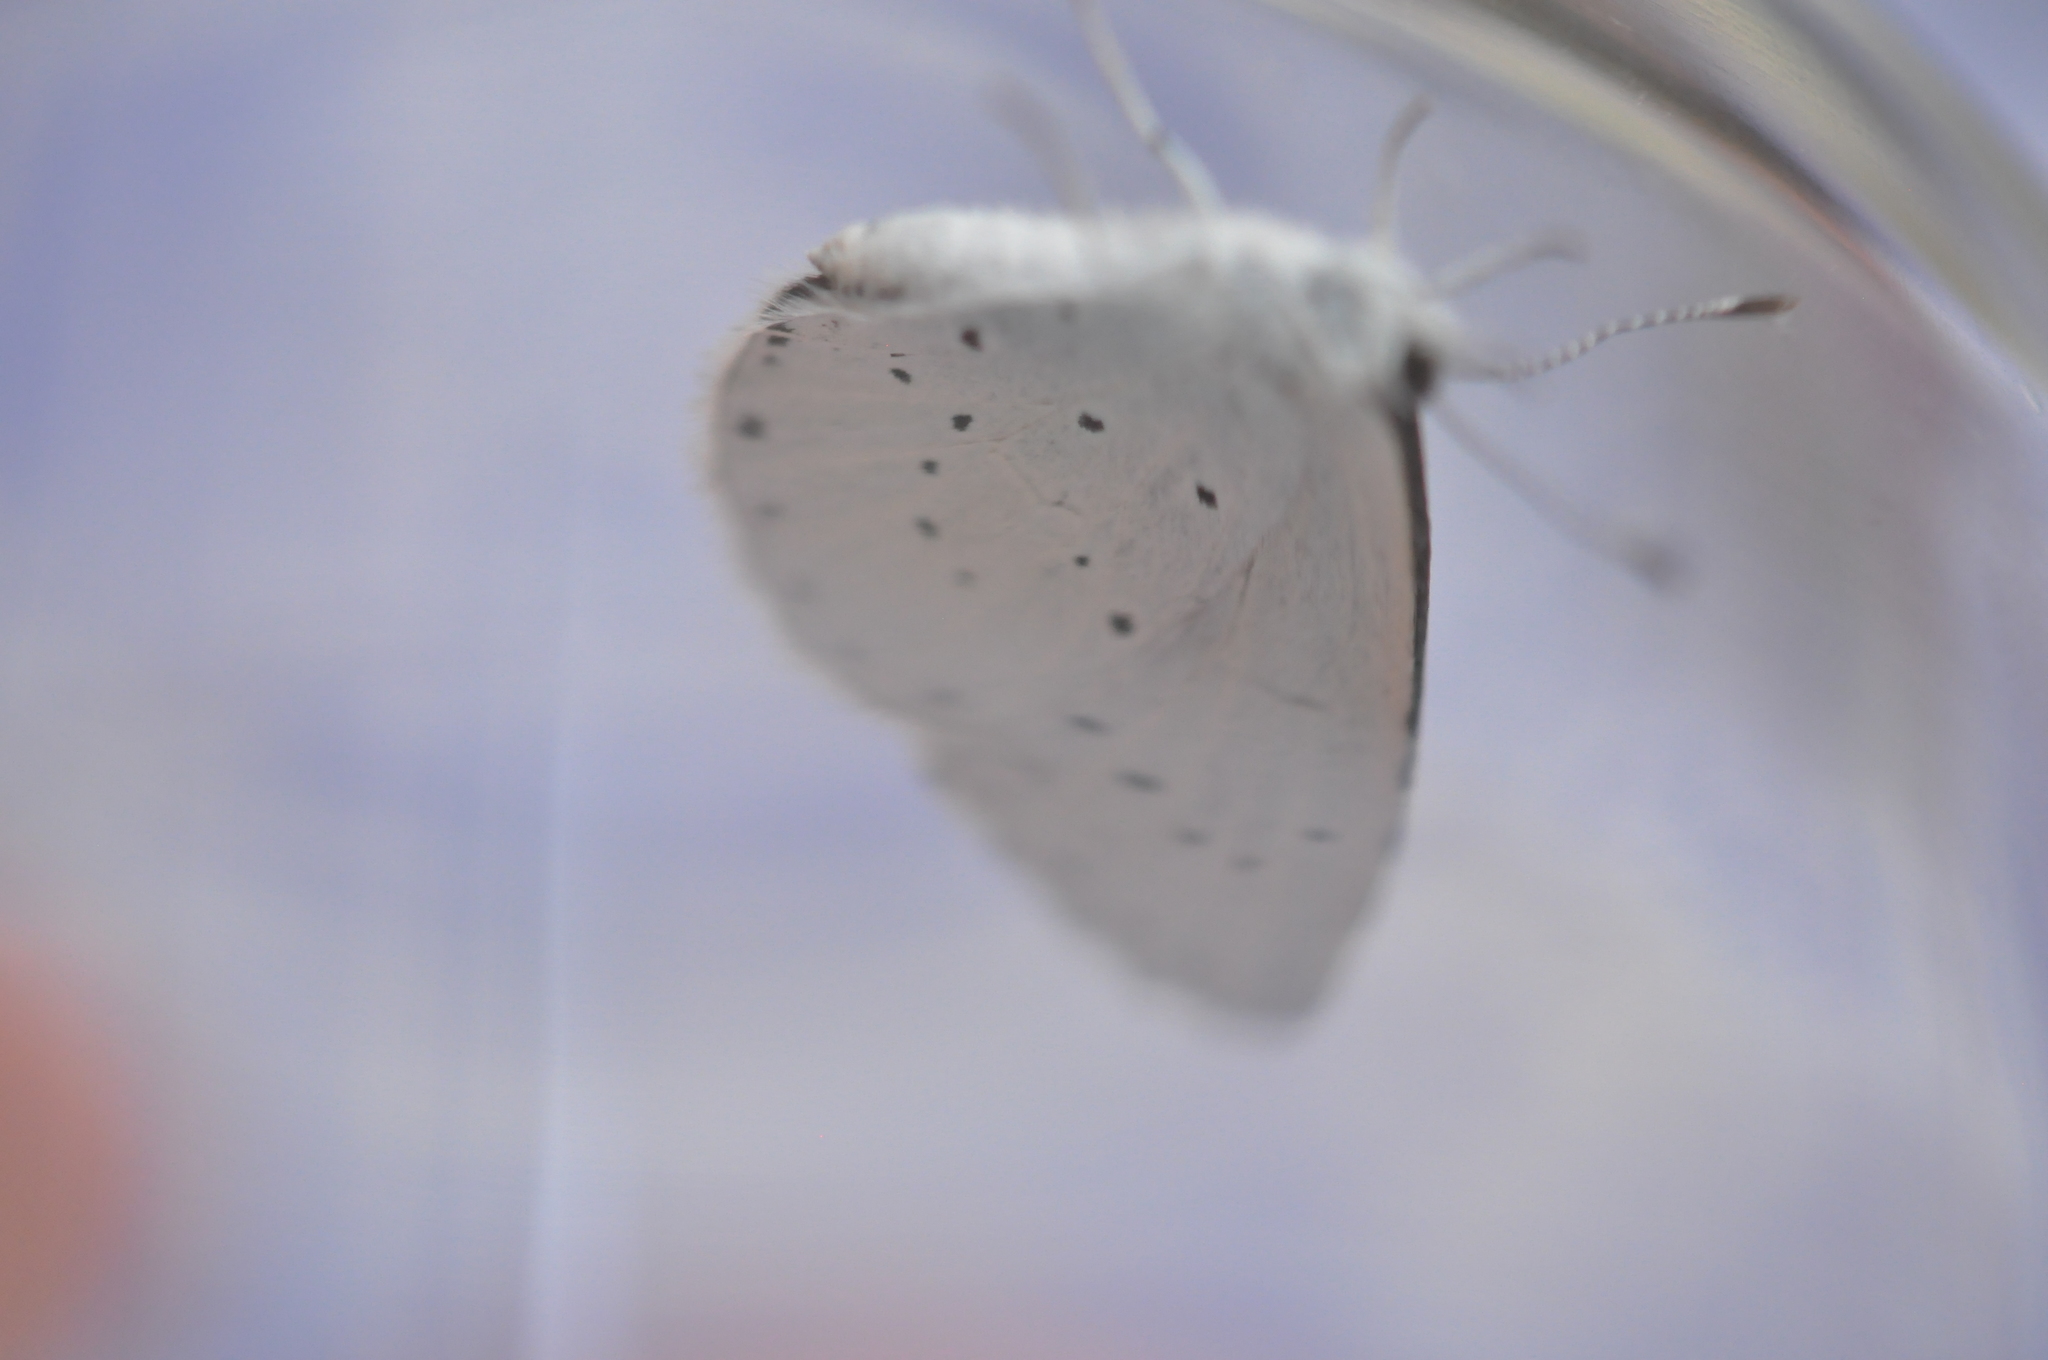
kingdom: Animalia
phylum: Arthropoda
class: Insecta
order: Lepidoptera
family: Lycaenidae
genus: Celastrina
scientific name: Celastrina argiolus
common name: Holly blue
